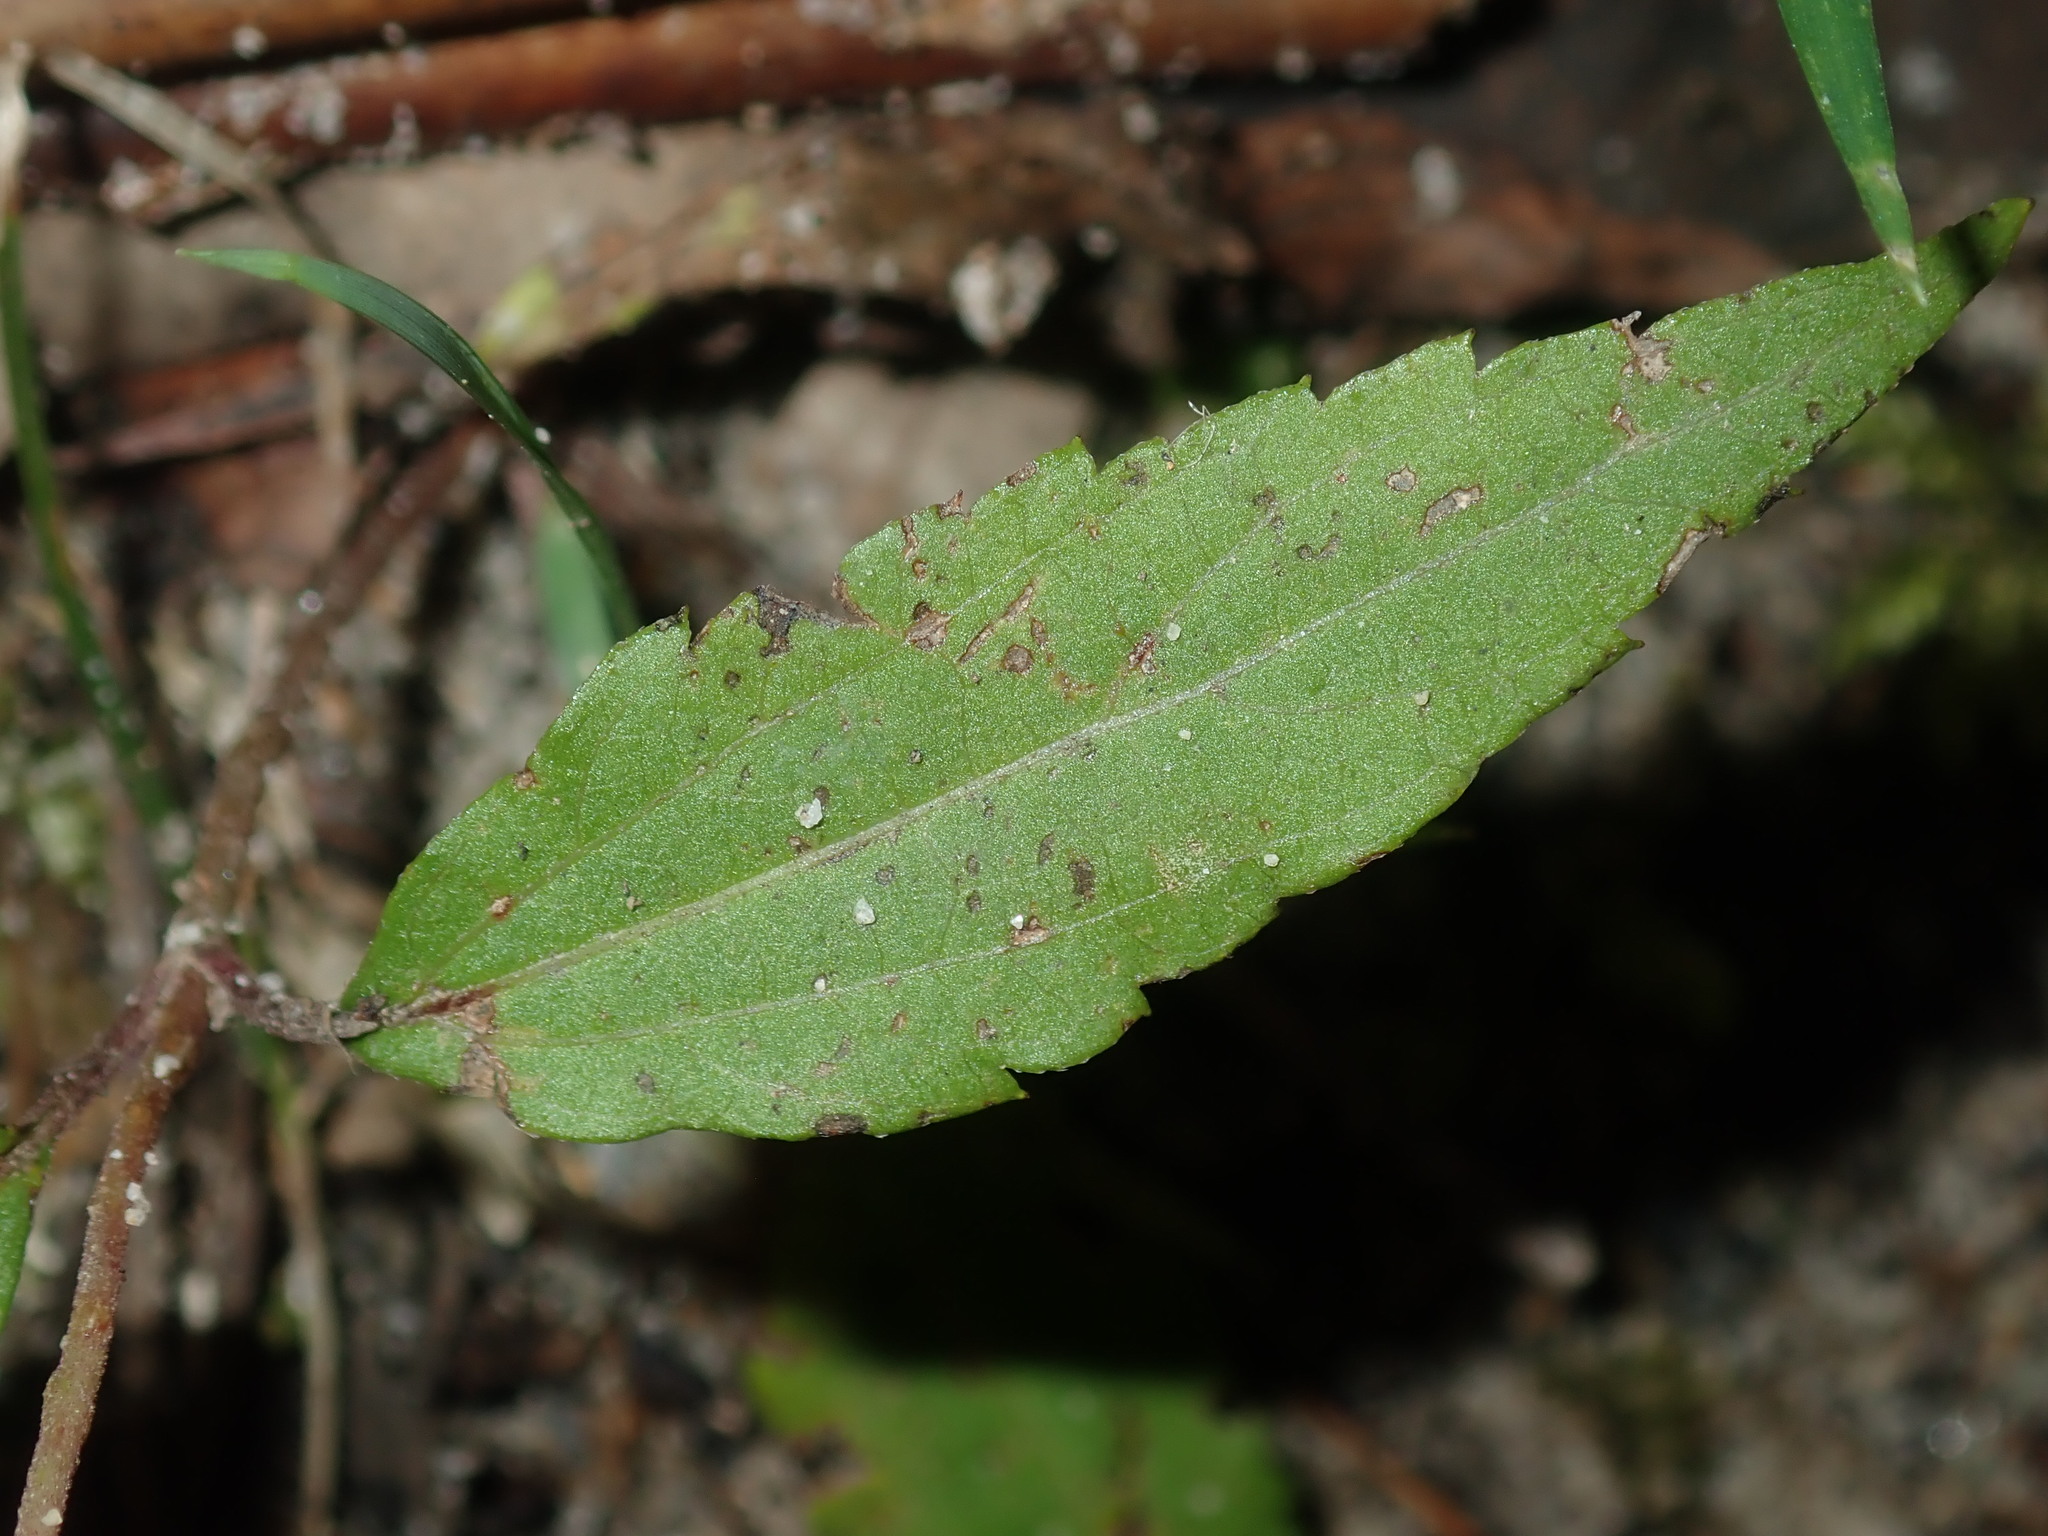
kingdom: Plantae
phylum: Tracheophyta
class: Magnoliopsida
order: Asterales
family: Asteraceae
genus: Ageratina
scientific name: Ageratina riparia
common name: Creeping croftonweed
